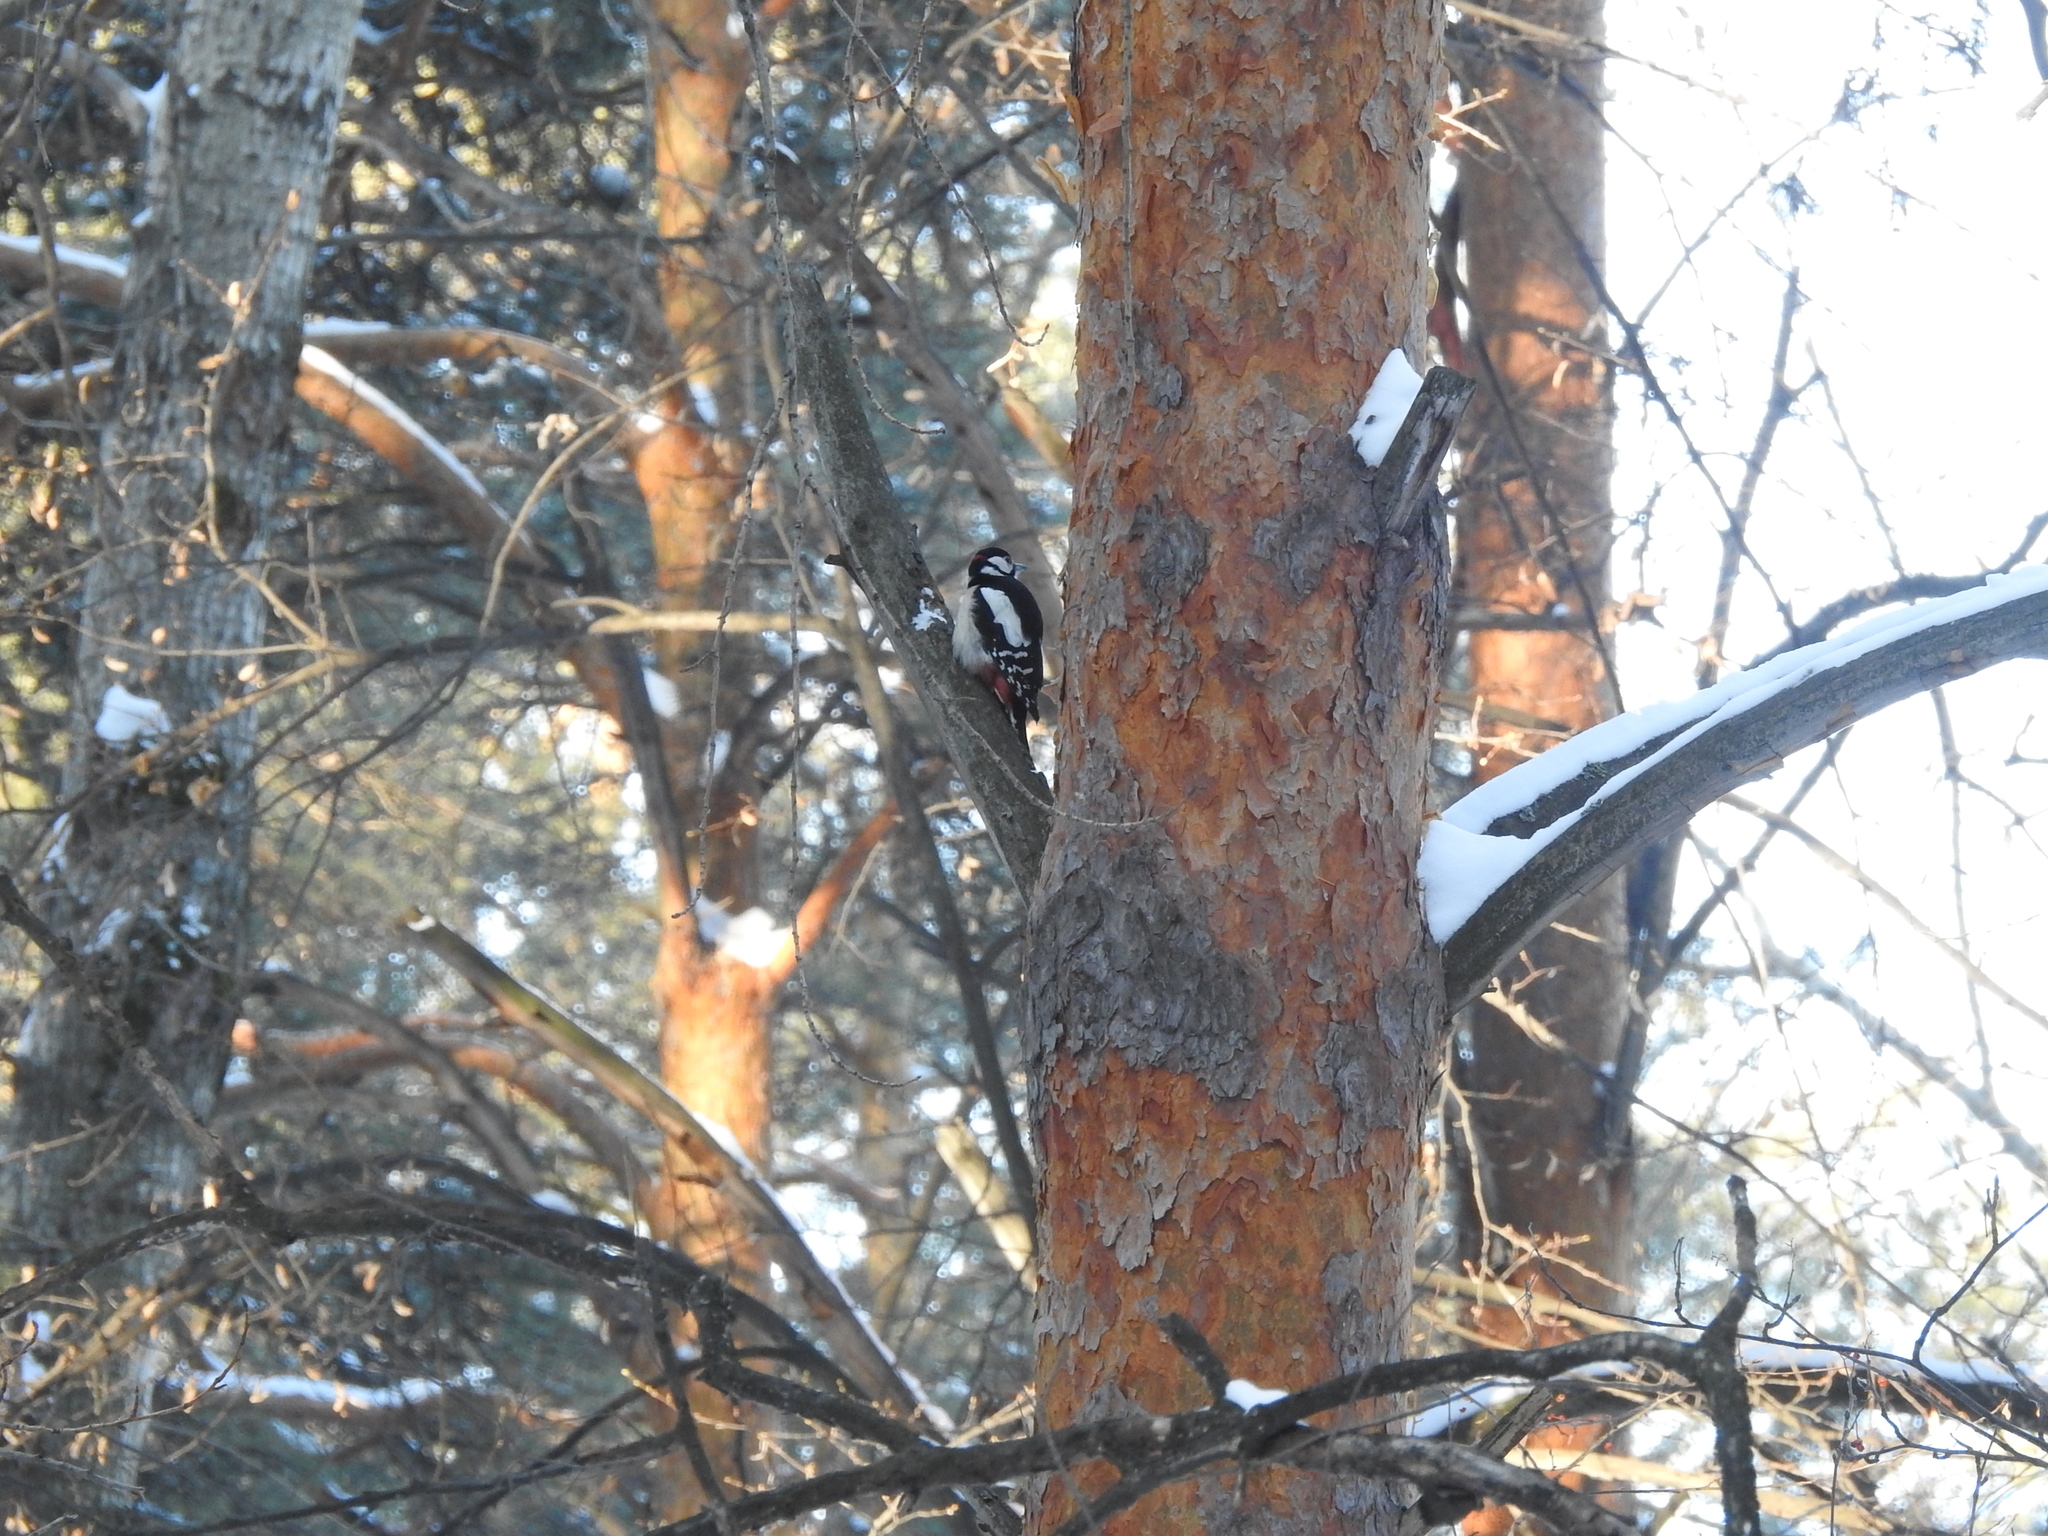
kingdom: Animalia
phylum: Chordata
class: Aves
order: Piciformes
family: Picidae
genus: Dendrocopos
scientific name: Dendrocopos major
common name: Great spotted woodpecker
